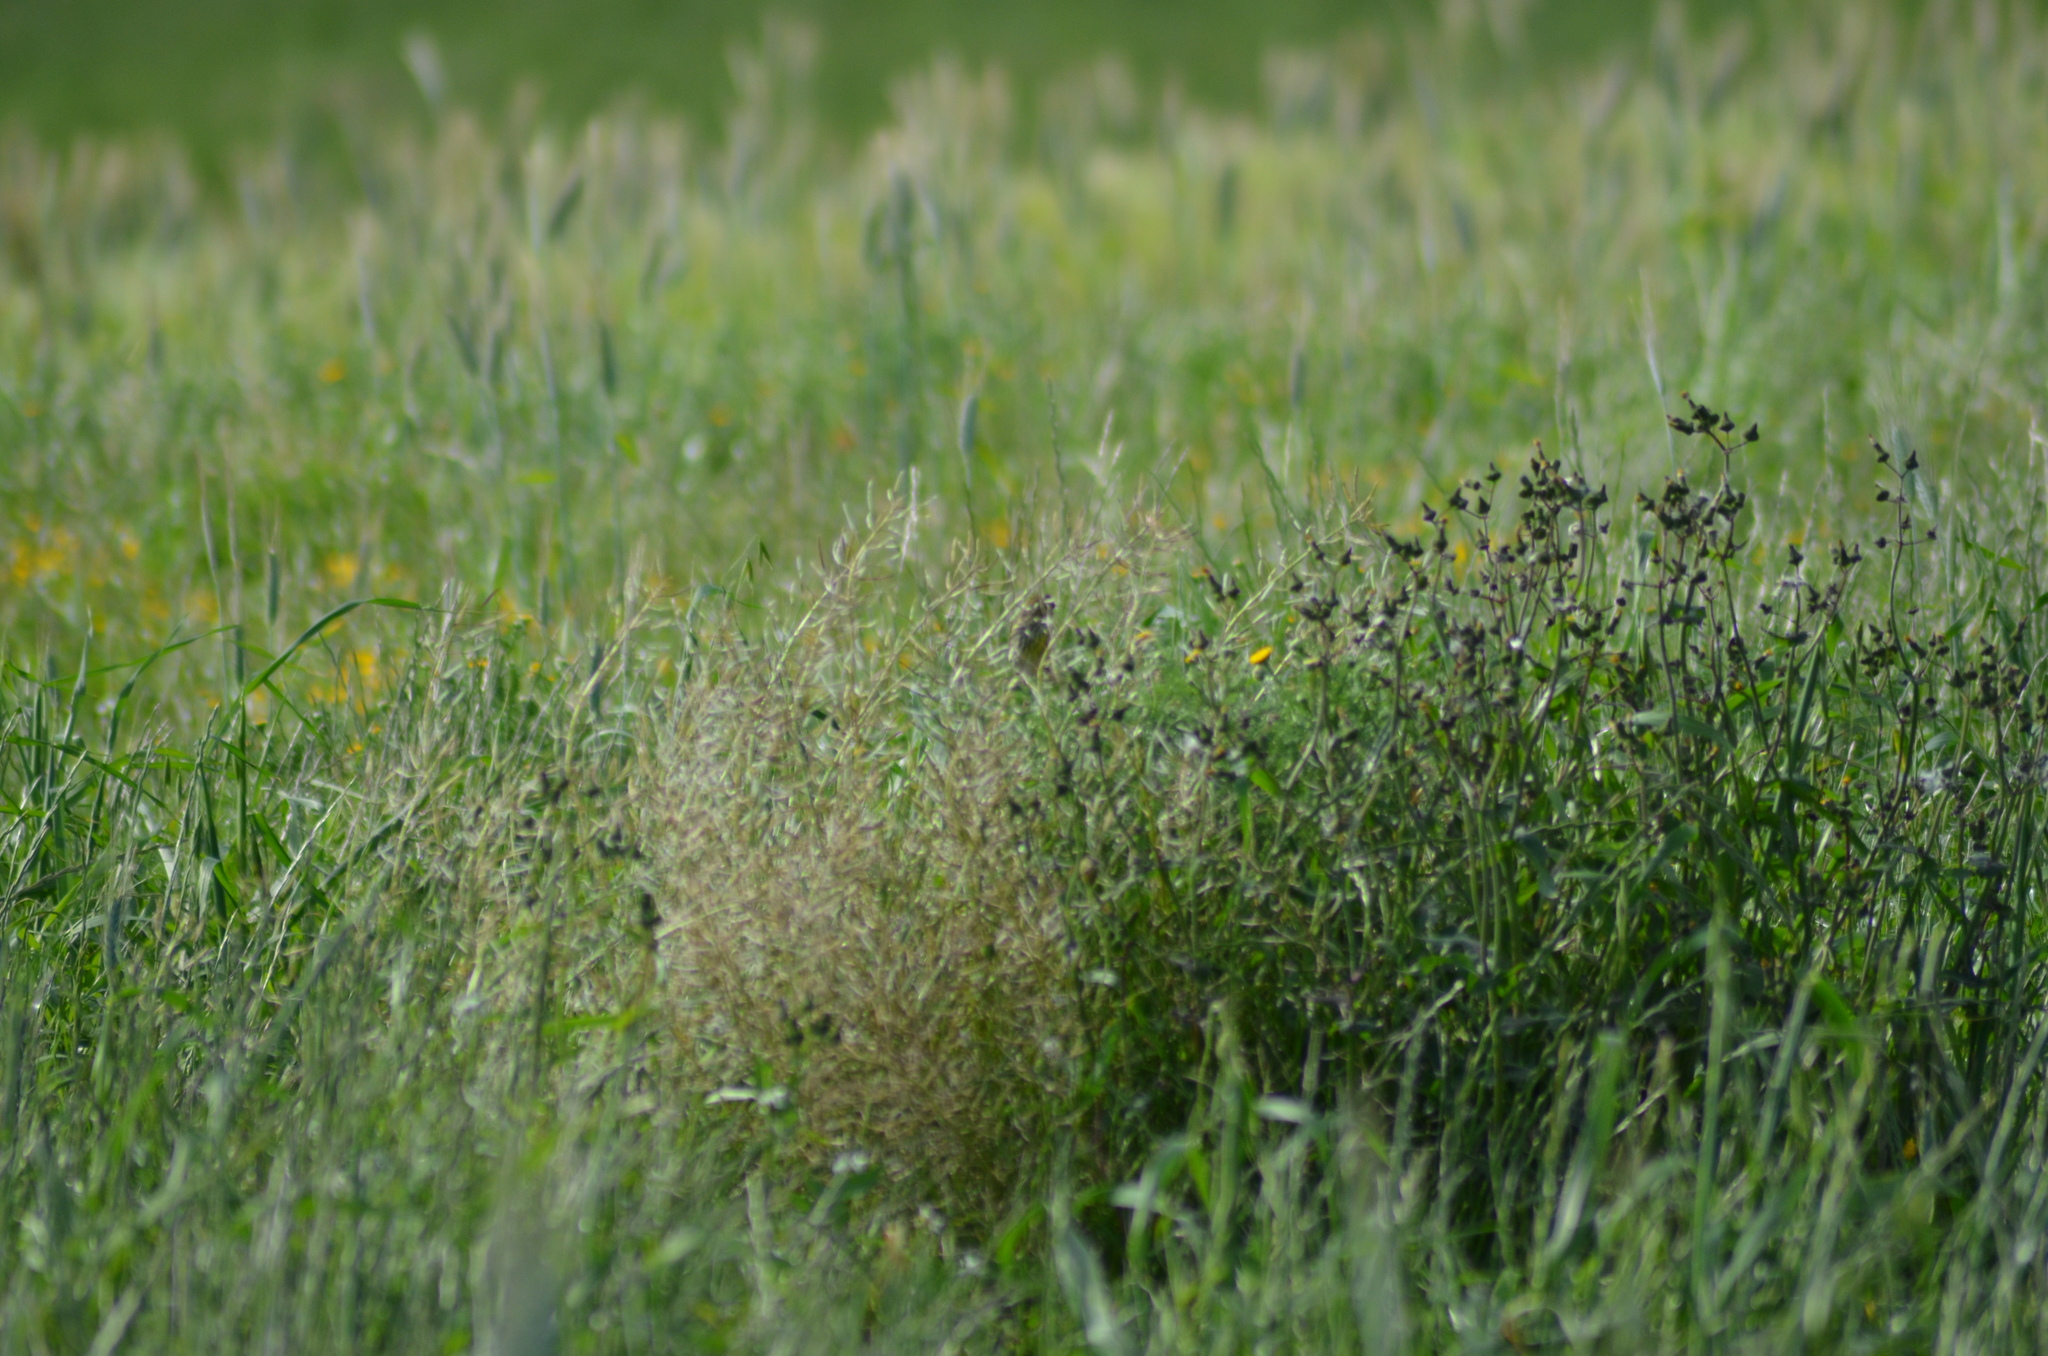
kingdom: Animalia
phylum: Chordata
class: Aves
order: Passeriformes
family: Fringillidae
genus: Serinus
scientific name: Serinus serinus
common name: European serin
